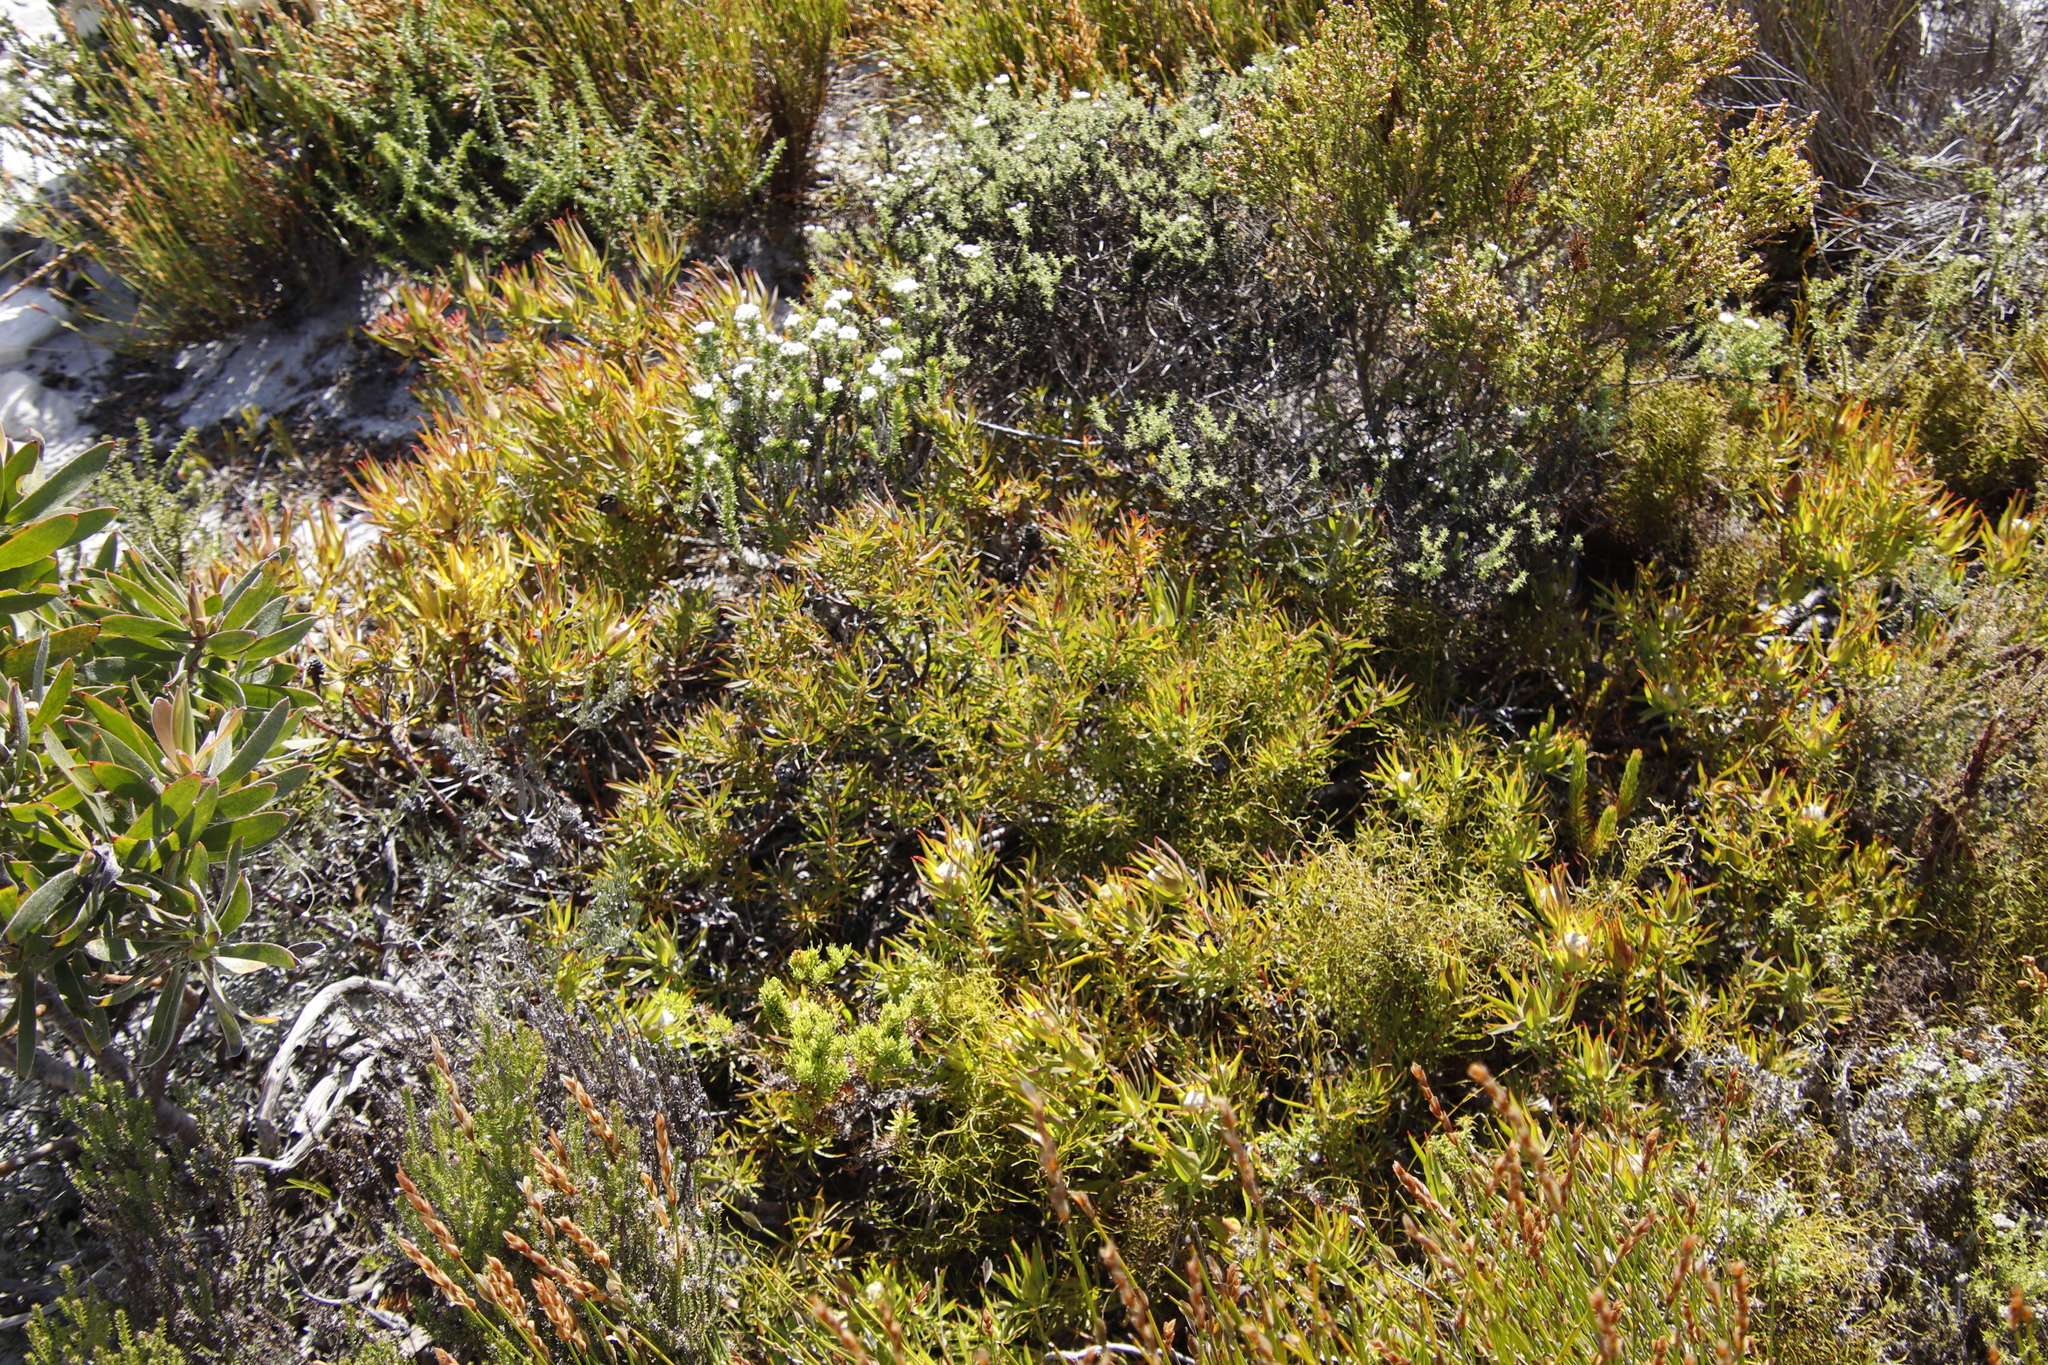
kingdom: Plantae
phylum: Tracheophyta
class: Magnoliopsida
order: Proteales
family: Proteaceae
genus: Leucadendron
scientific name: Leucadendron salignum
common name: Common sunshine conebush
